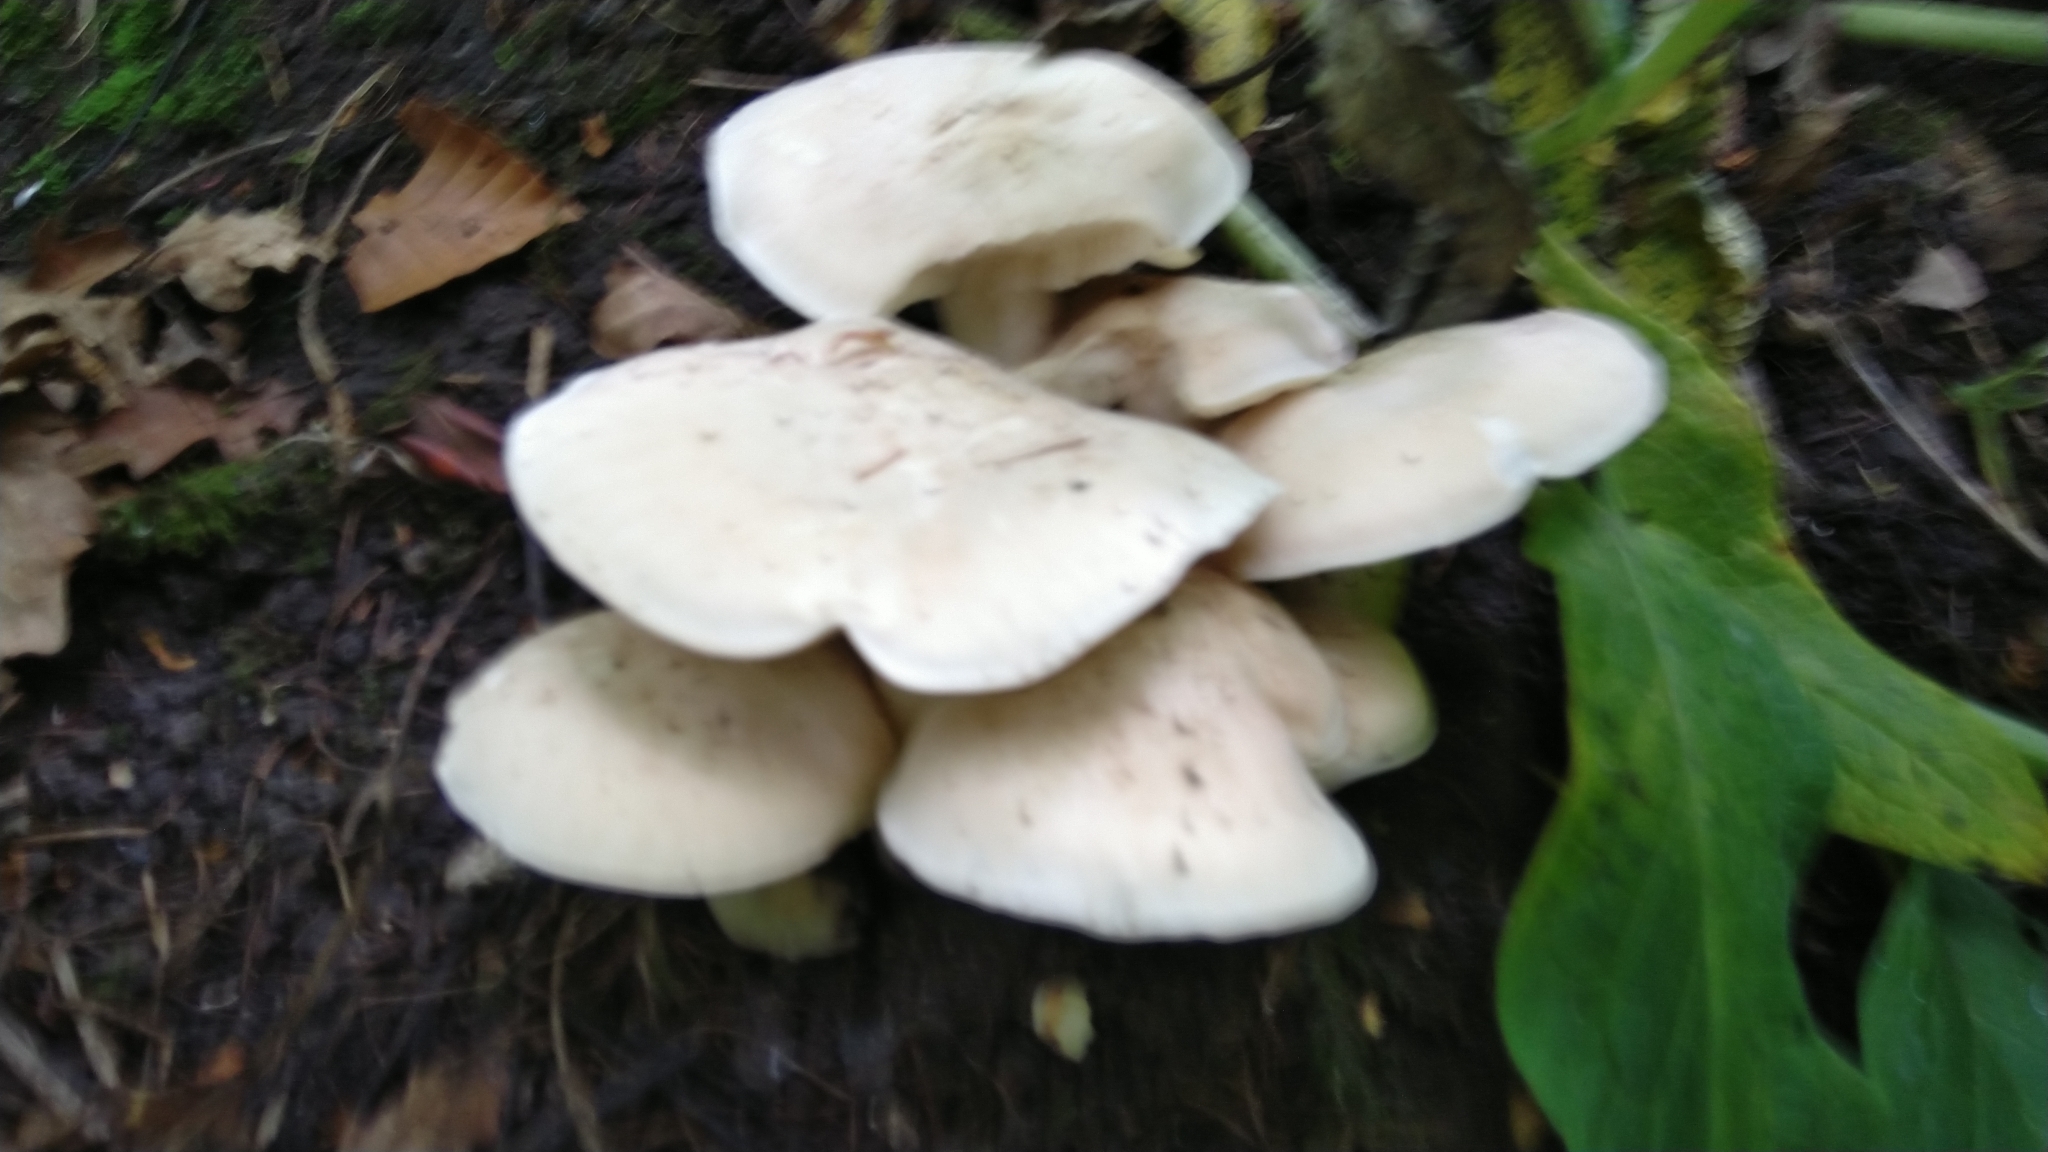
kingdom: Fungi
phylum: Basidiomycota
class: Agaricomycetes
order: Agaricales
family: Lyophyllaceae
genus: Calocybe
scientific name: Calocybe gambosa
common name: St. george's mushroom
